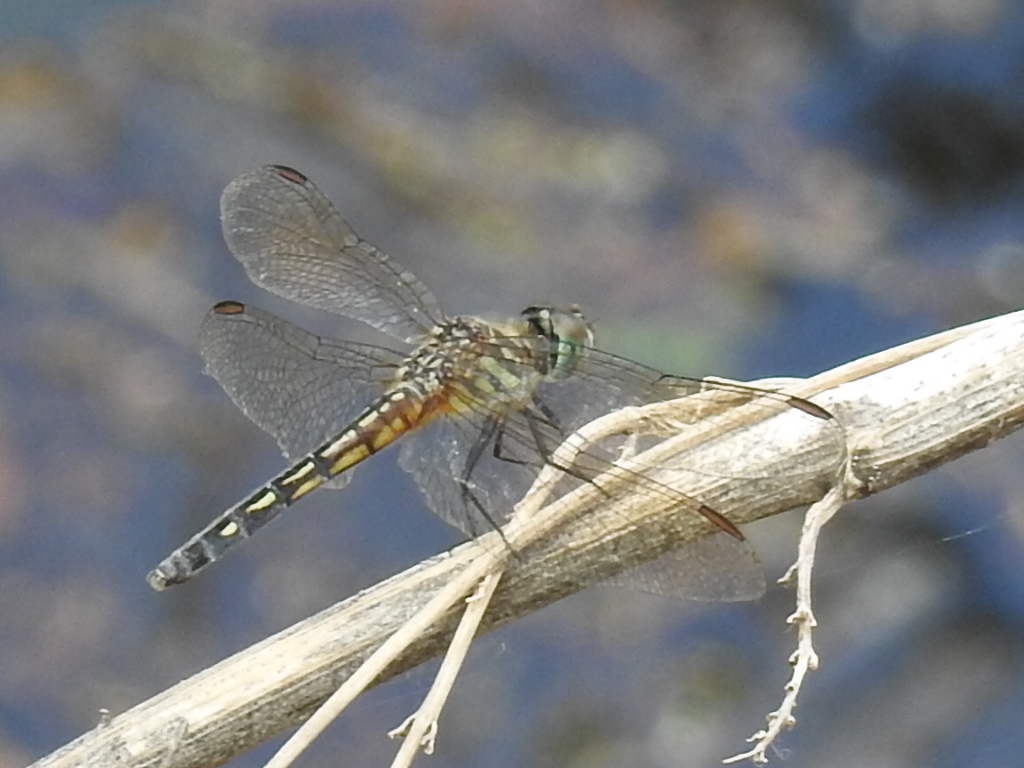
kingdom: Animalia
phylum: Arthropoda
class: Insecta
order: Odonata
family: Libellulidae
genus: Pachydiplax
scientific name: Pachydiplax longipennis
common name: Blue dasher
